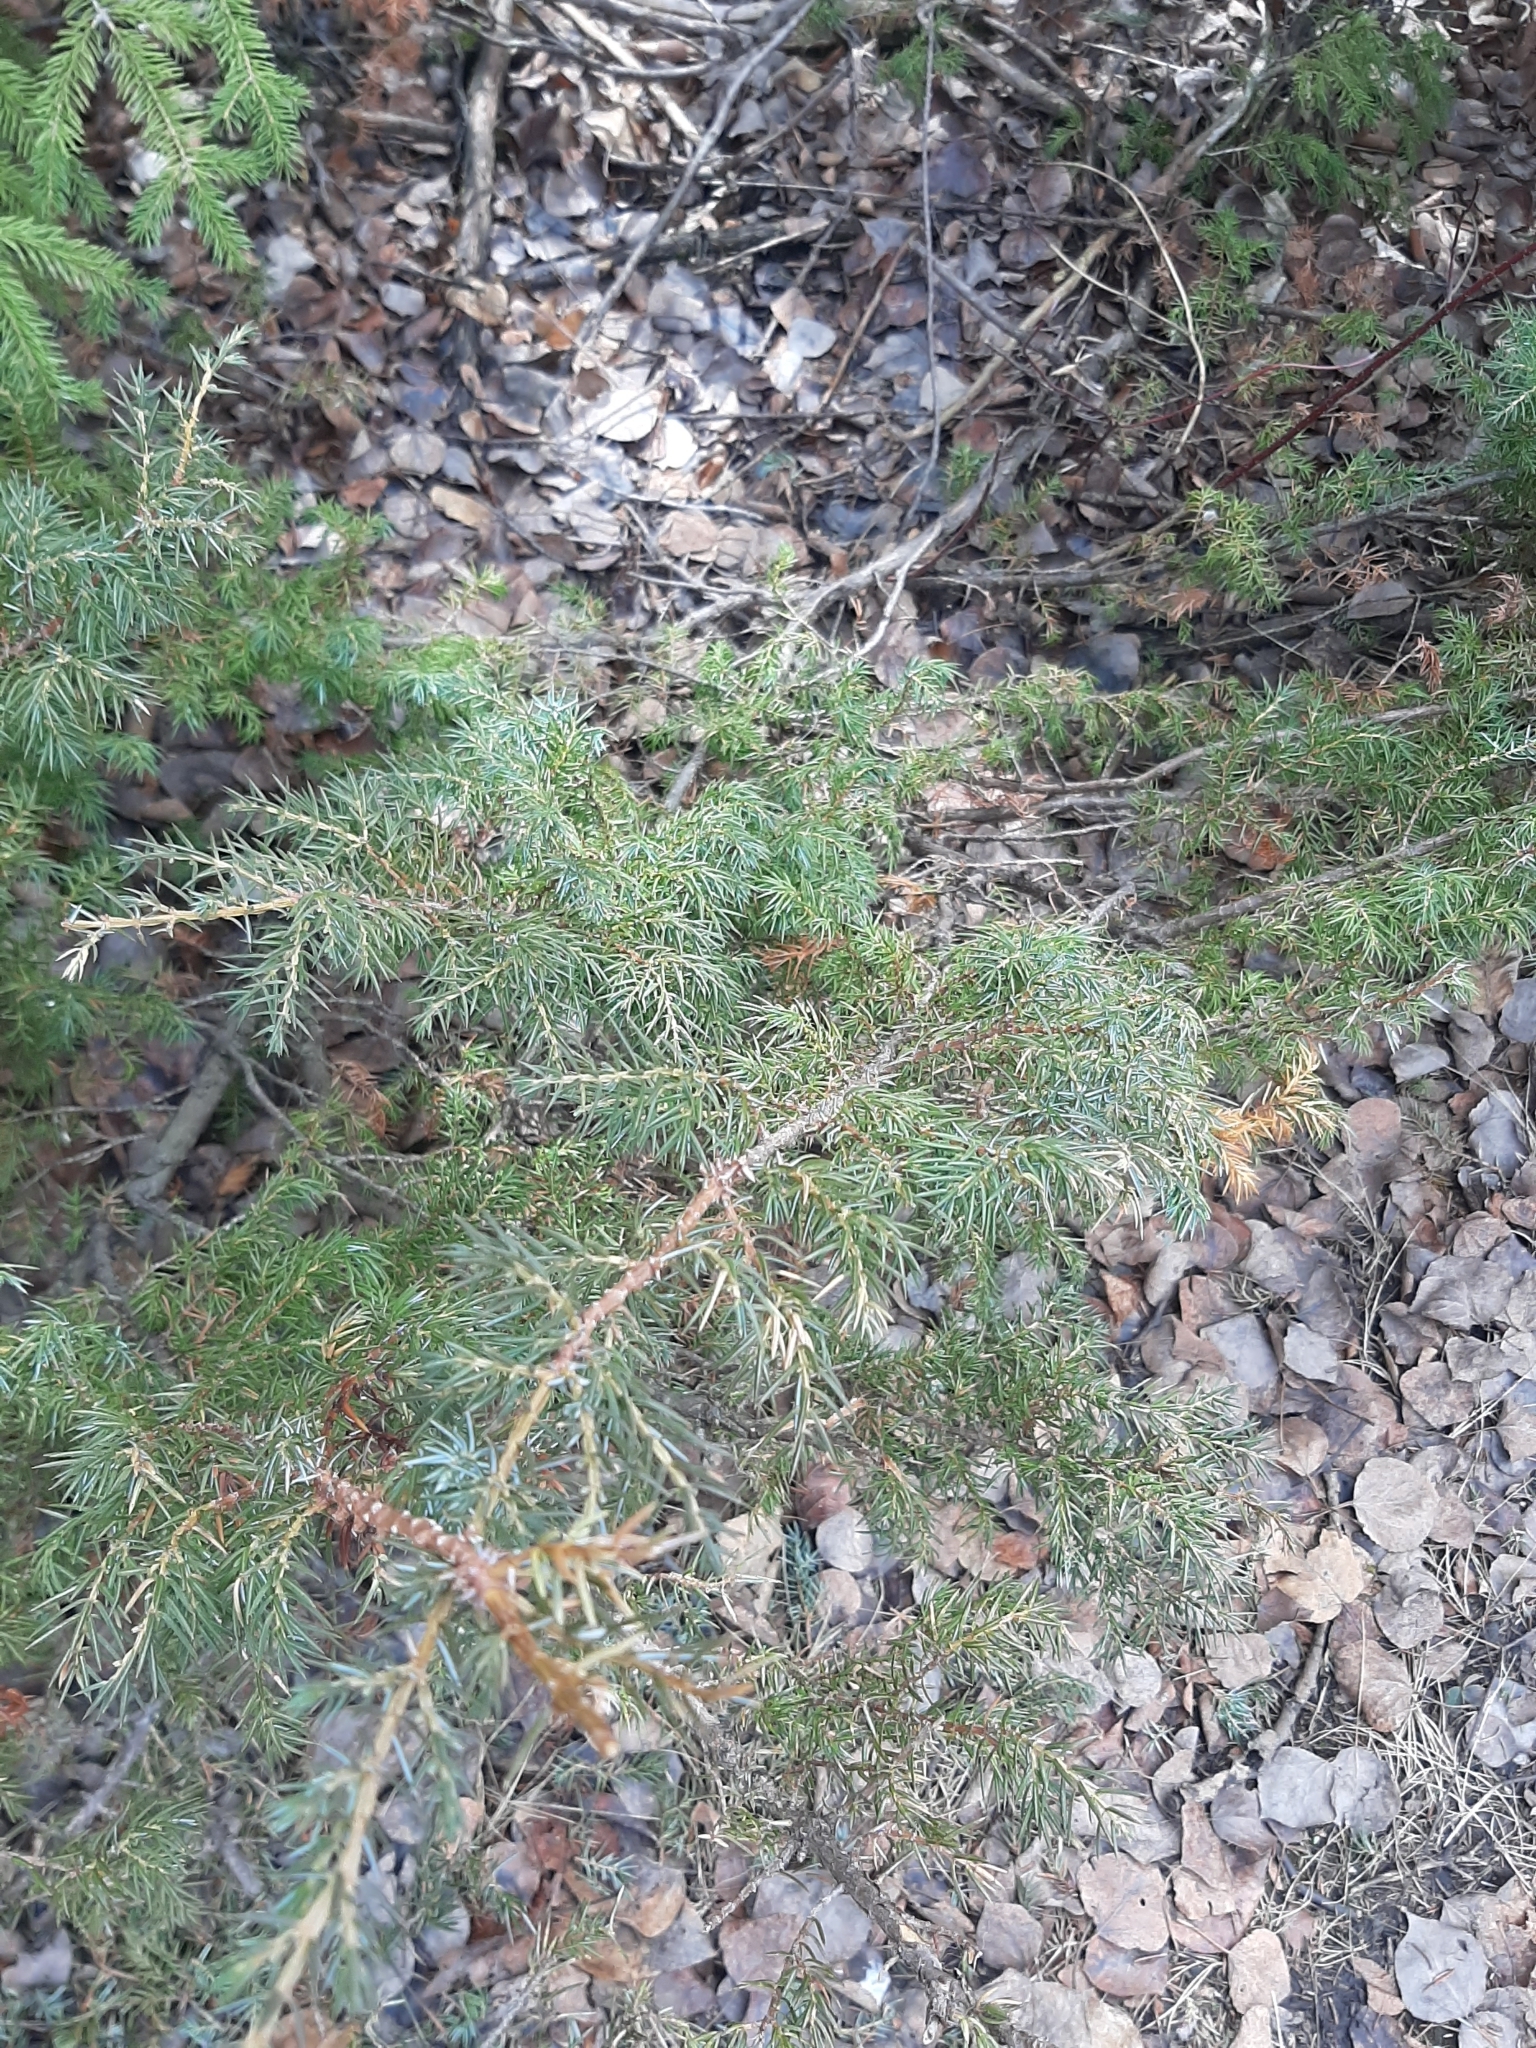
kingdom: Plantae
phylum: Tracheophyta
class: Pinopsida
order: Pinales
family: Cupressaceae
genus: Juniperus
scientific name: Juniperus communis
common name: Common juniper
